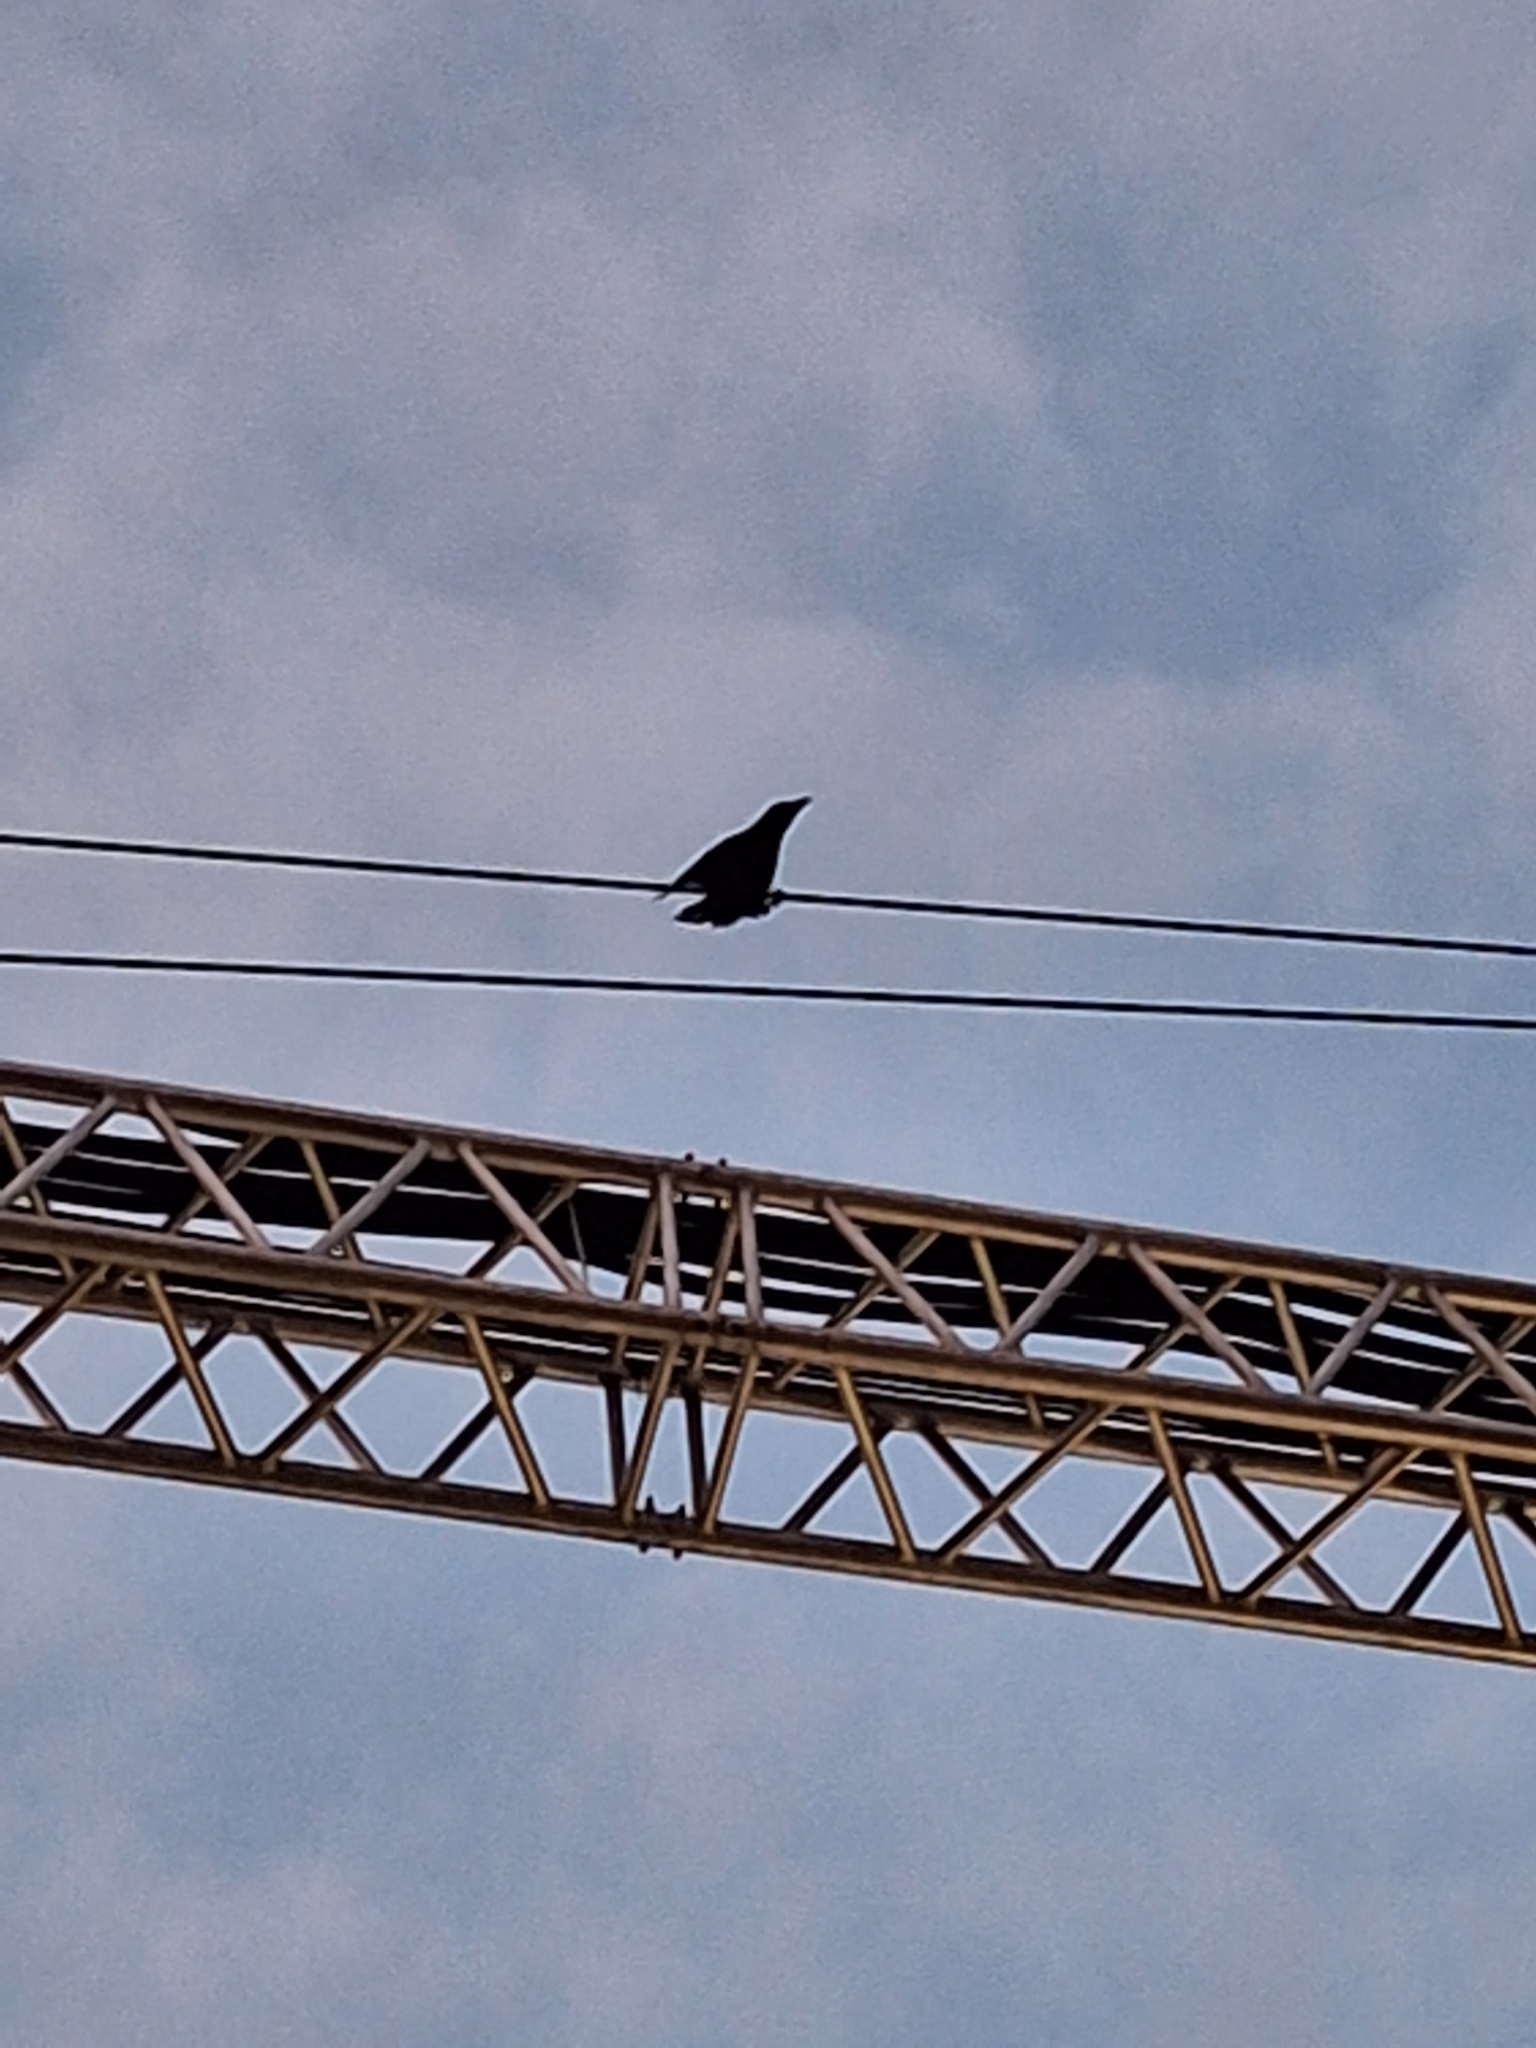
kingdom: Animalia
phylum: Chordata
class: Aves
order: Passeriformes
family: Corvidae
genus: Corvus
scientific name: Corvus splendens
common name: House crow
